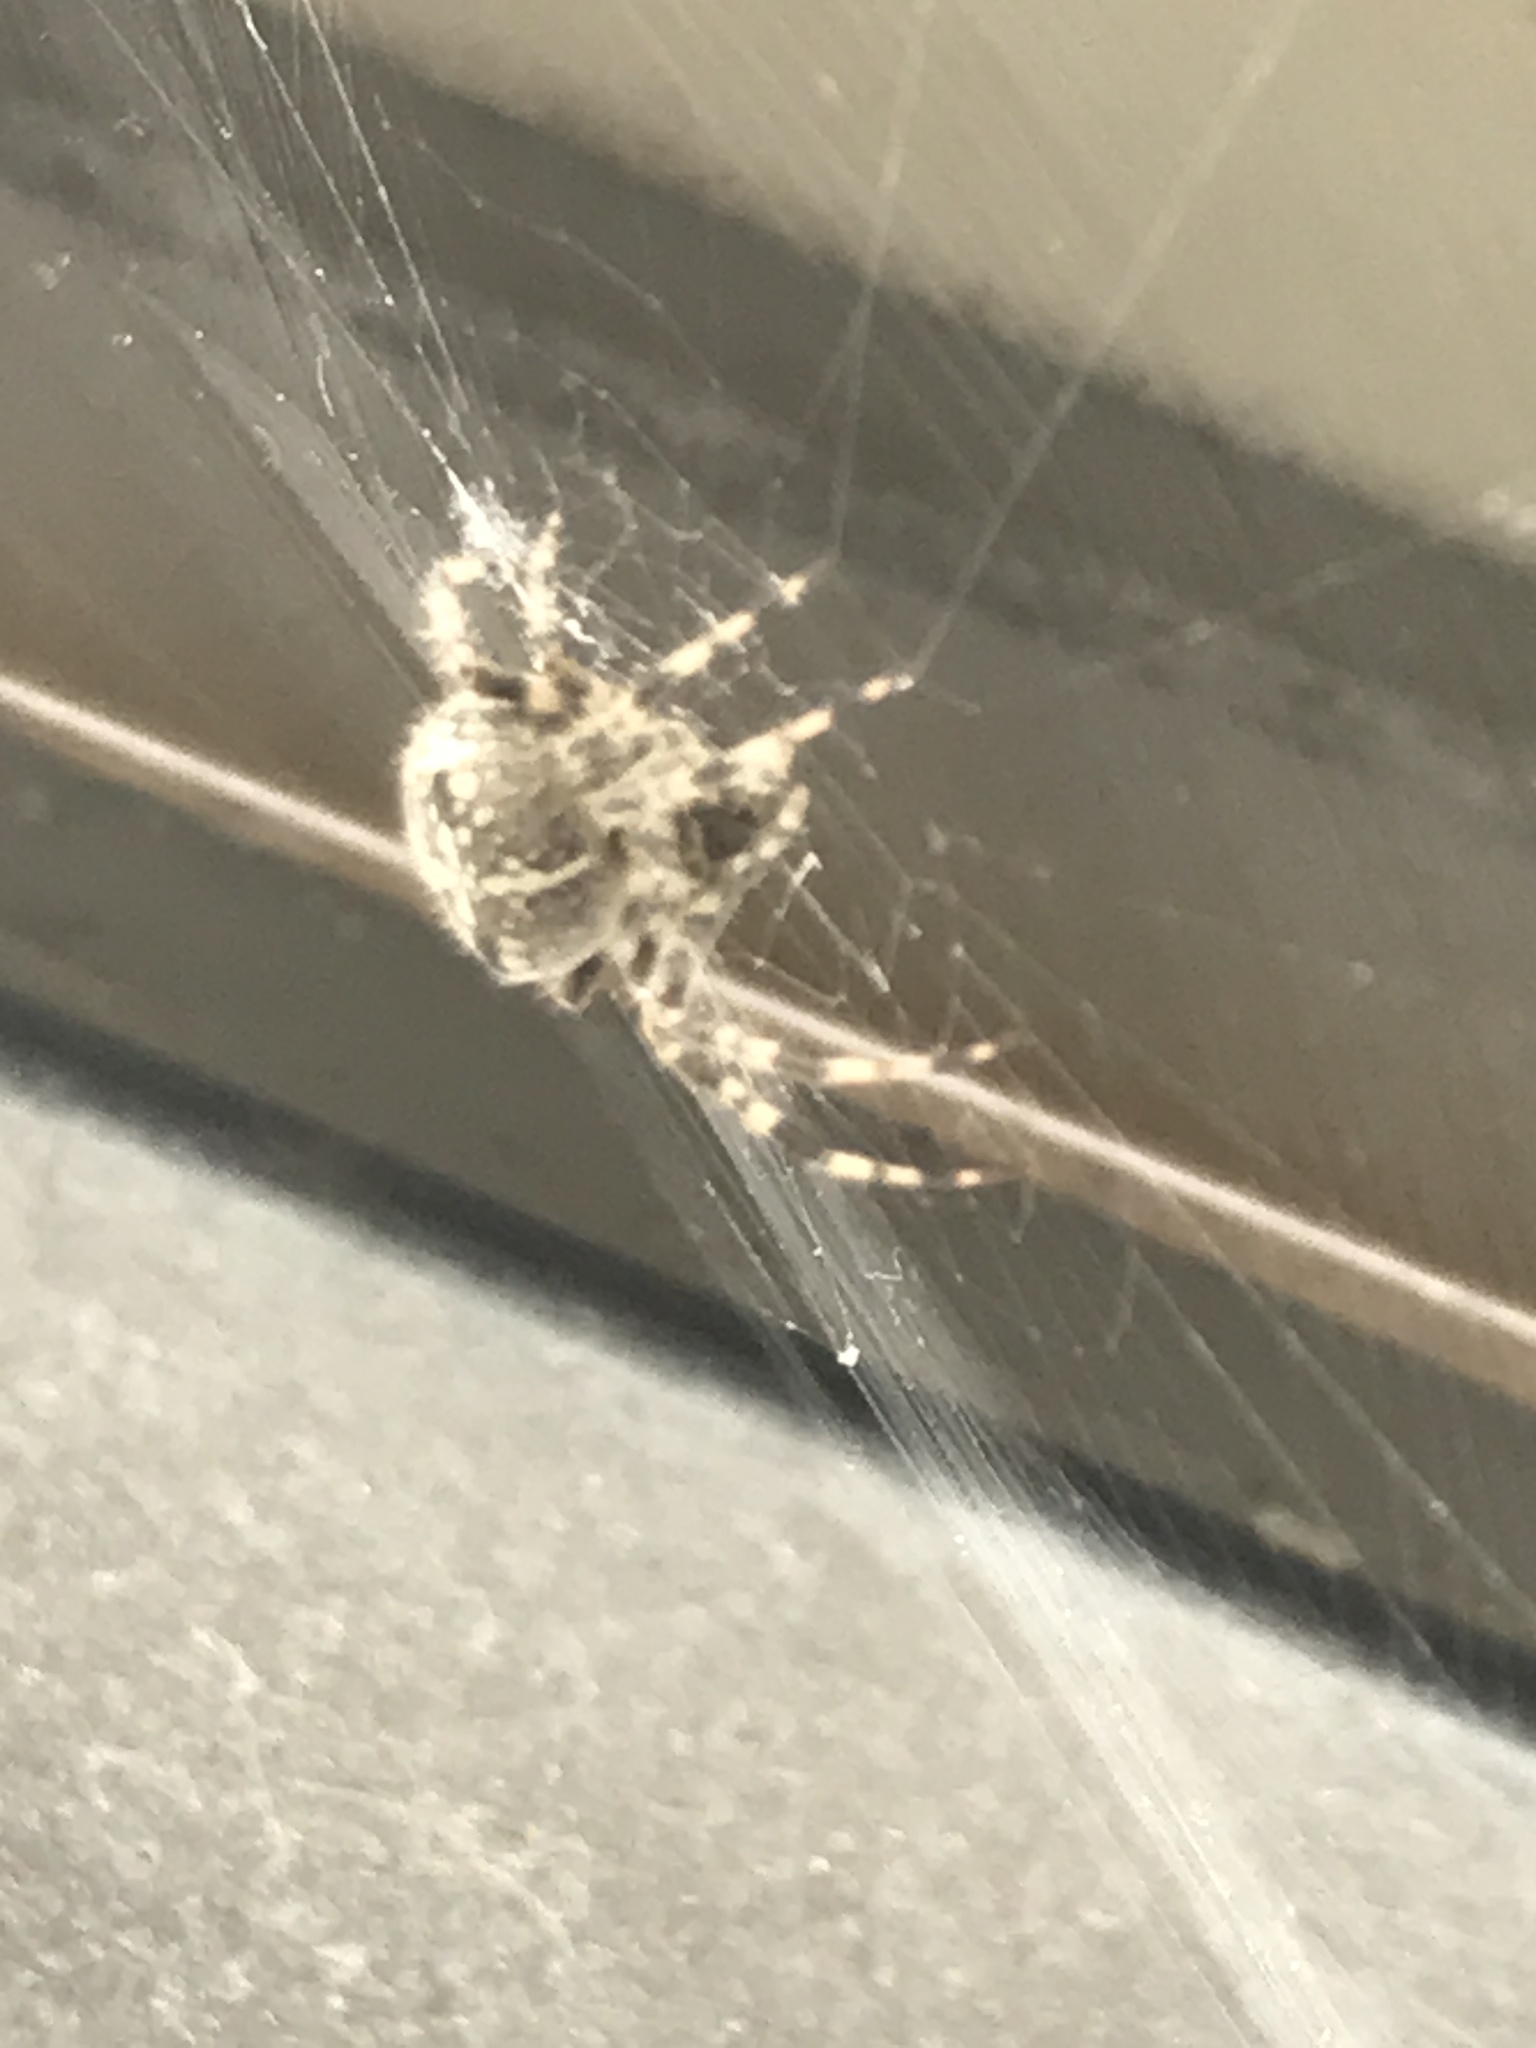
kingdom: Animalia
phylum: Arthropoda
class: Arachnida
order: Araneae
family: Araneidae
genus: Araneus
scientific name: Araneus diadematus
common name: Cross orbweaver
